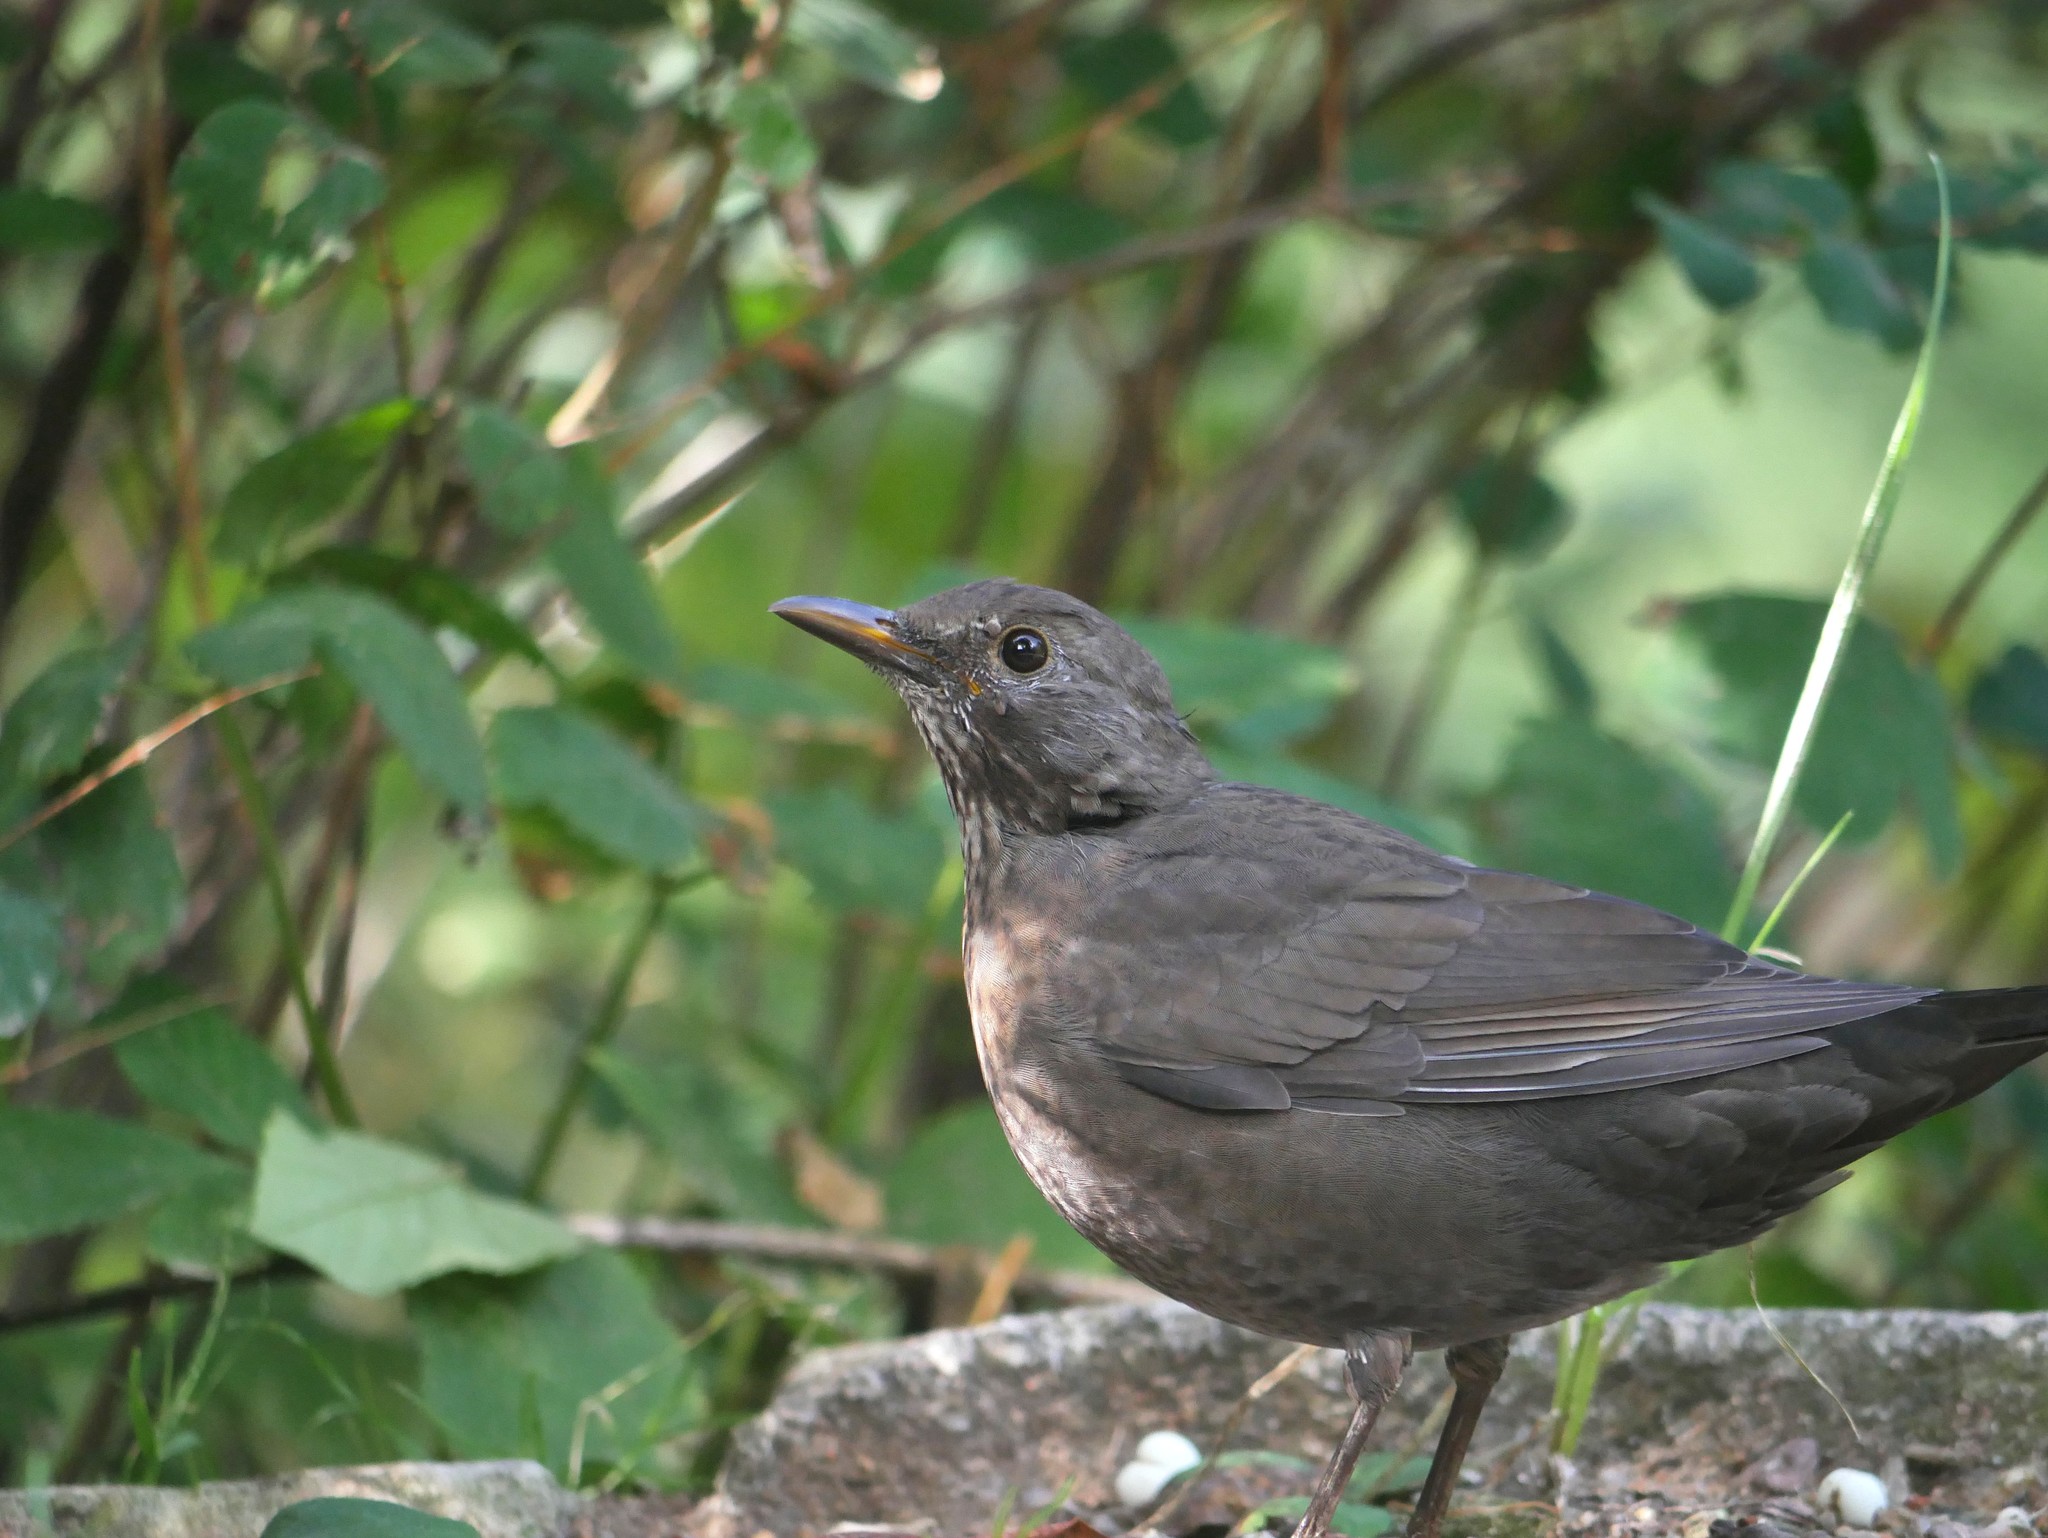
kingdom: Animalia
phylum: Chordata
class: Aves
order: Passeriformes
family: Turdidae
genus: Turdus
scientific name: Turdus merula
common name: Common blackbird
